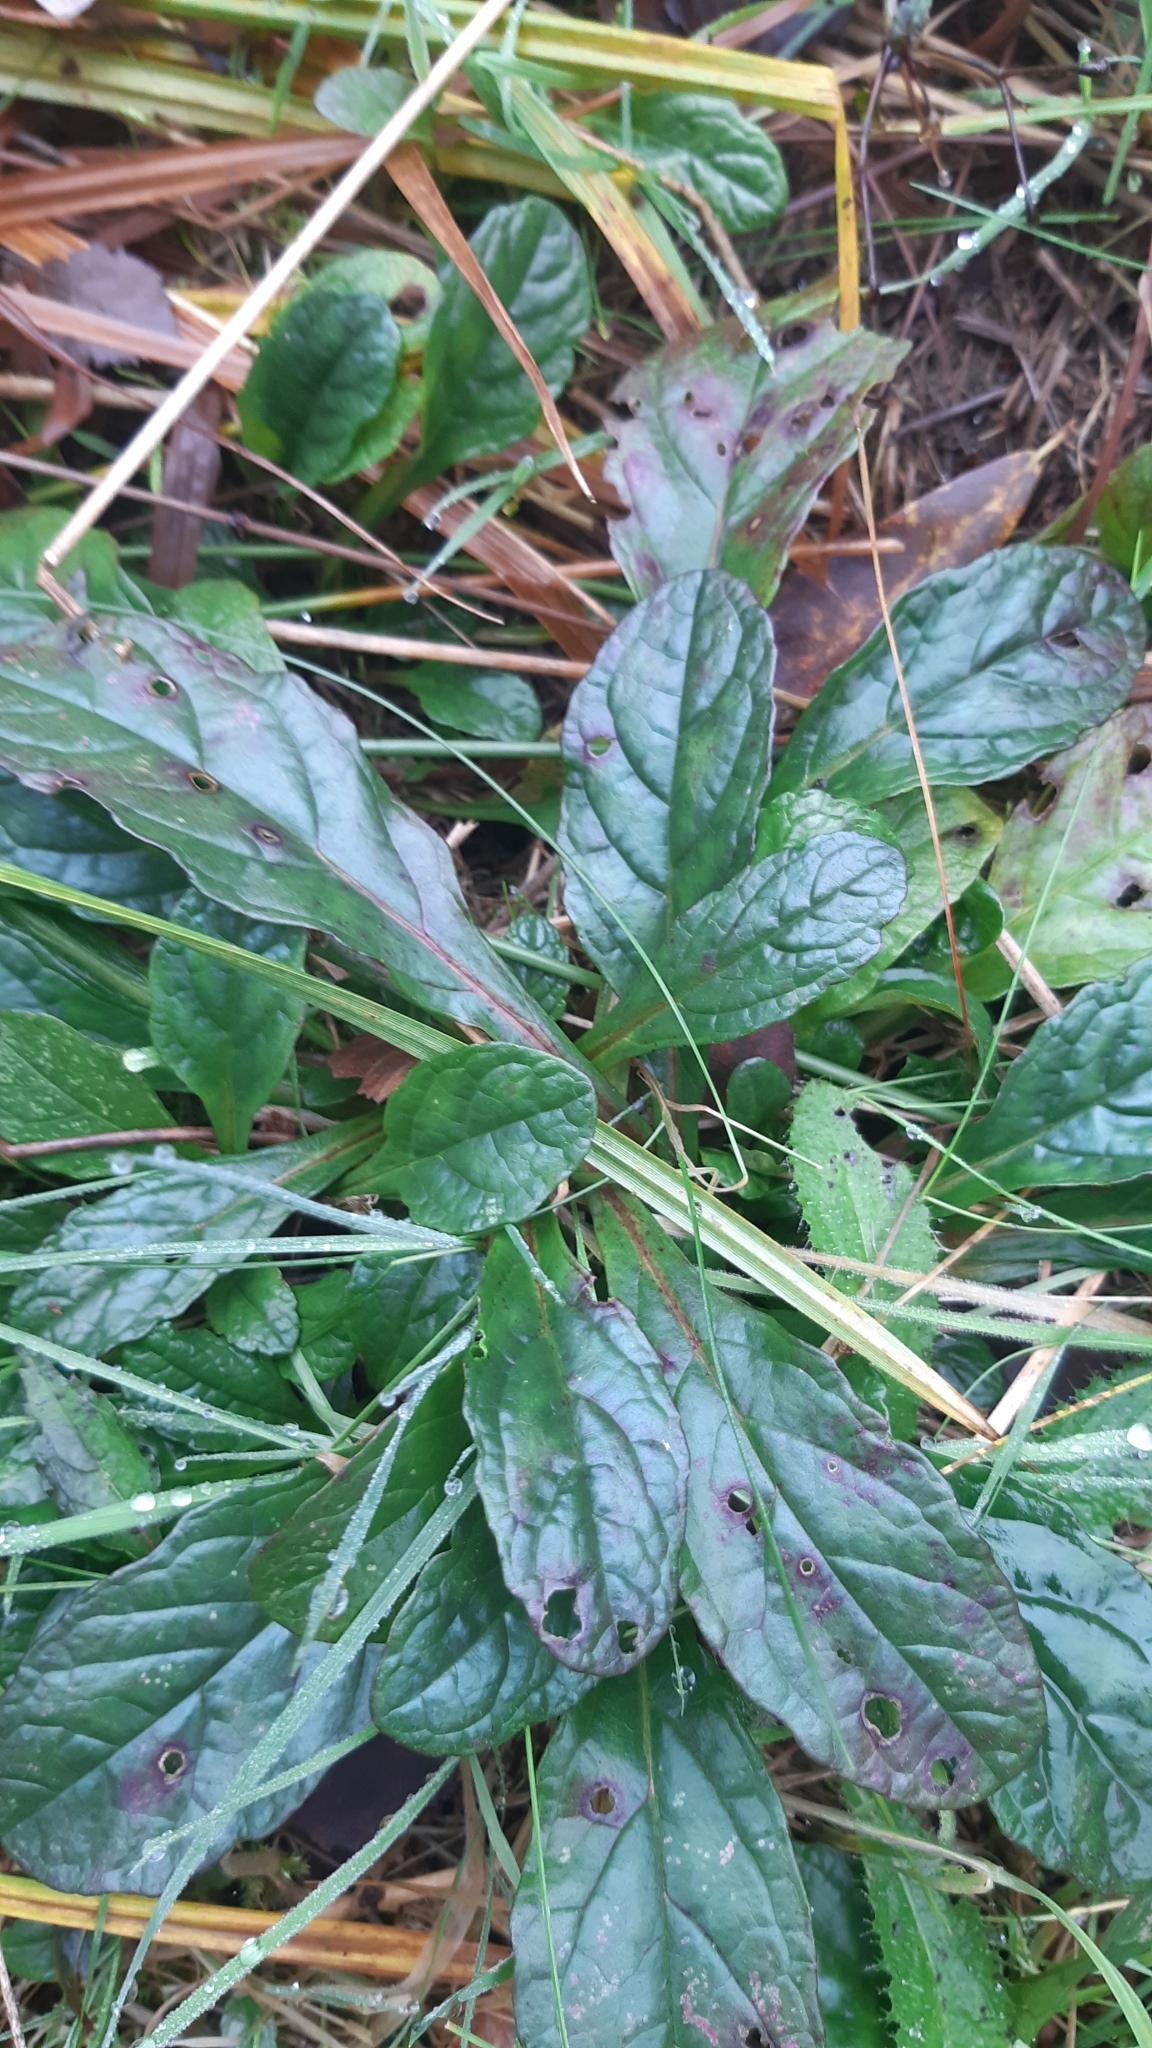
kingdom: Plantae
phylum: Tracheophyta
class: Magnoliopsida
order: Lamiales
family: Lamiaceae
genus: Ajuga
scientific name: Ajuga reptans
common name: Bugle
